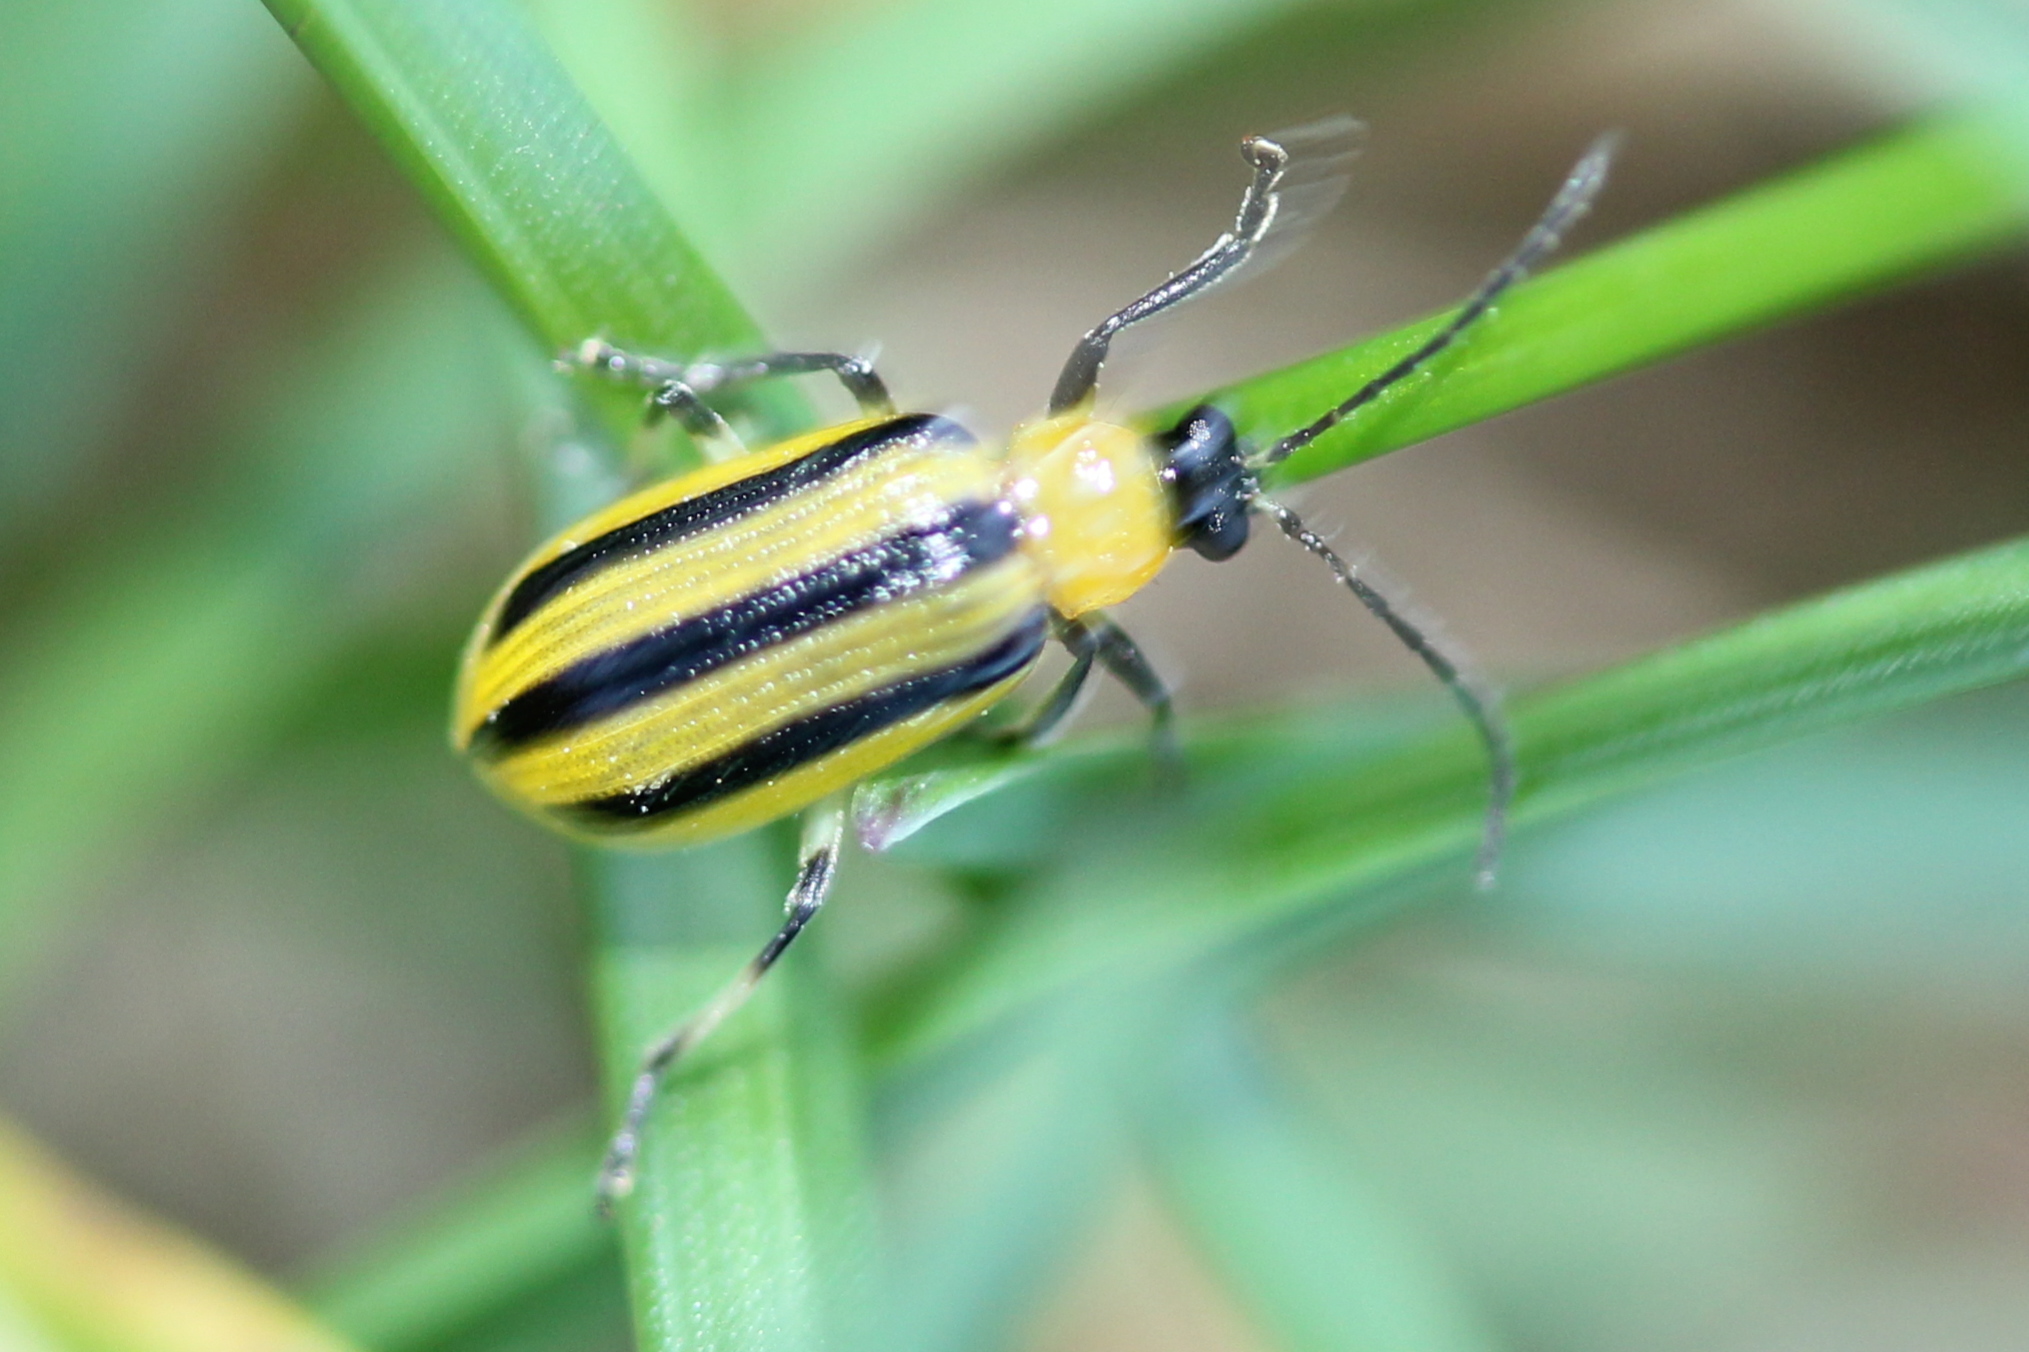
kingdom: Animalia
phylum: Arthropoda
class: Insecta
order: Coleoptera
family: Chrysomelidae
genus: Acalymma
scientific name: Acalymma vittatum
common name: Striped cucumber beetle
